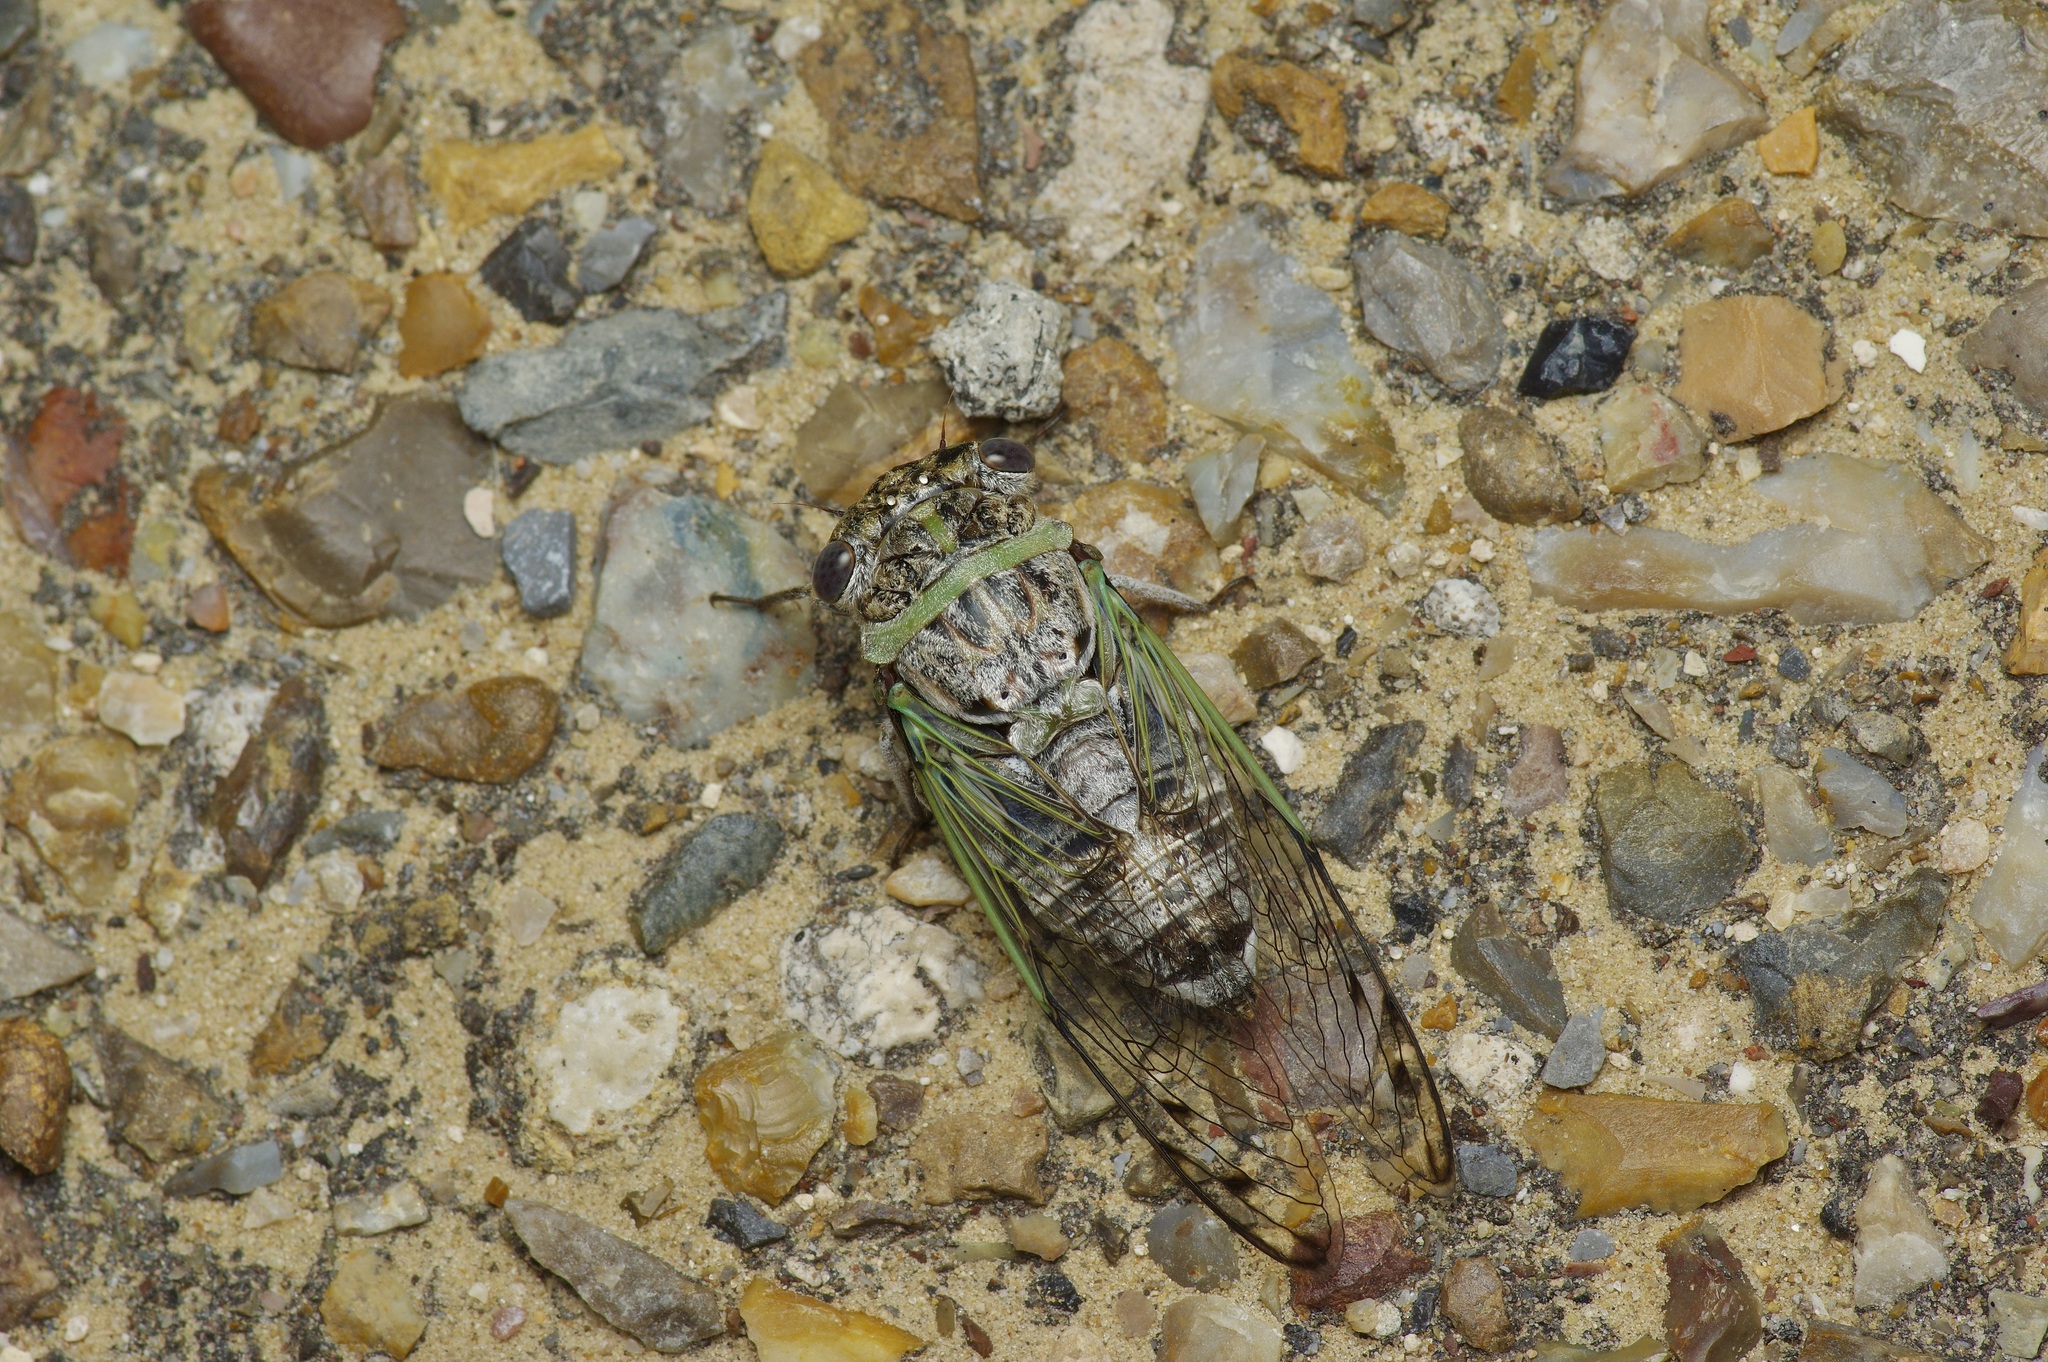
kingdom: Animalia
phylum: Arthropoda
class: Insecta
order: Hemiptera
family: Cicadidae
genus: Diceroprocta
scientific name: Diceroprocta texana
